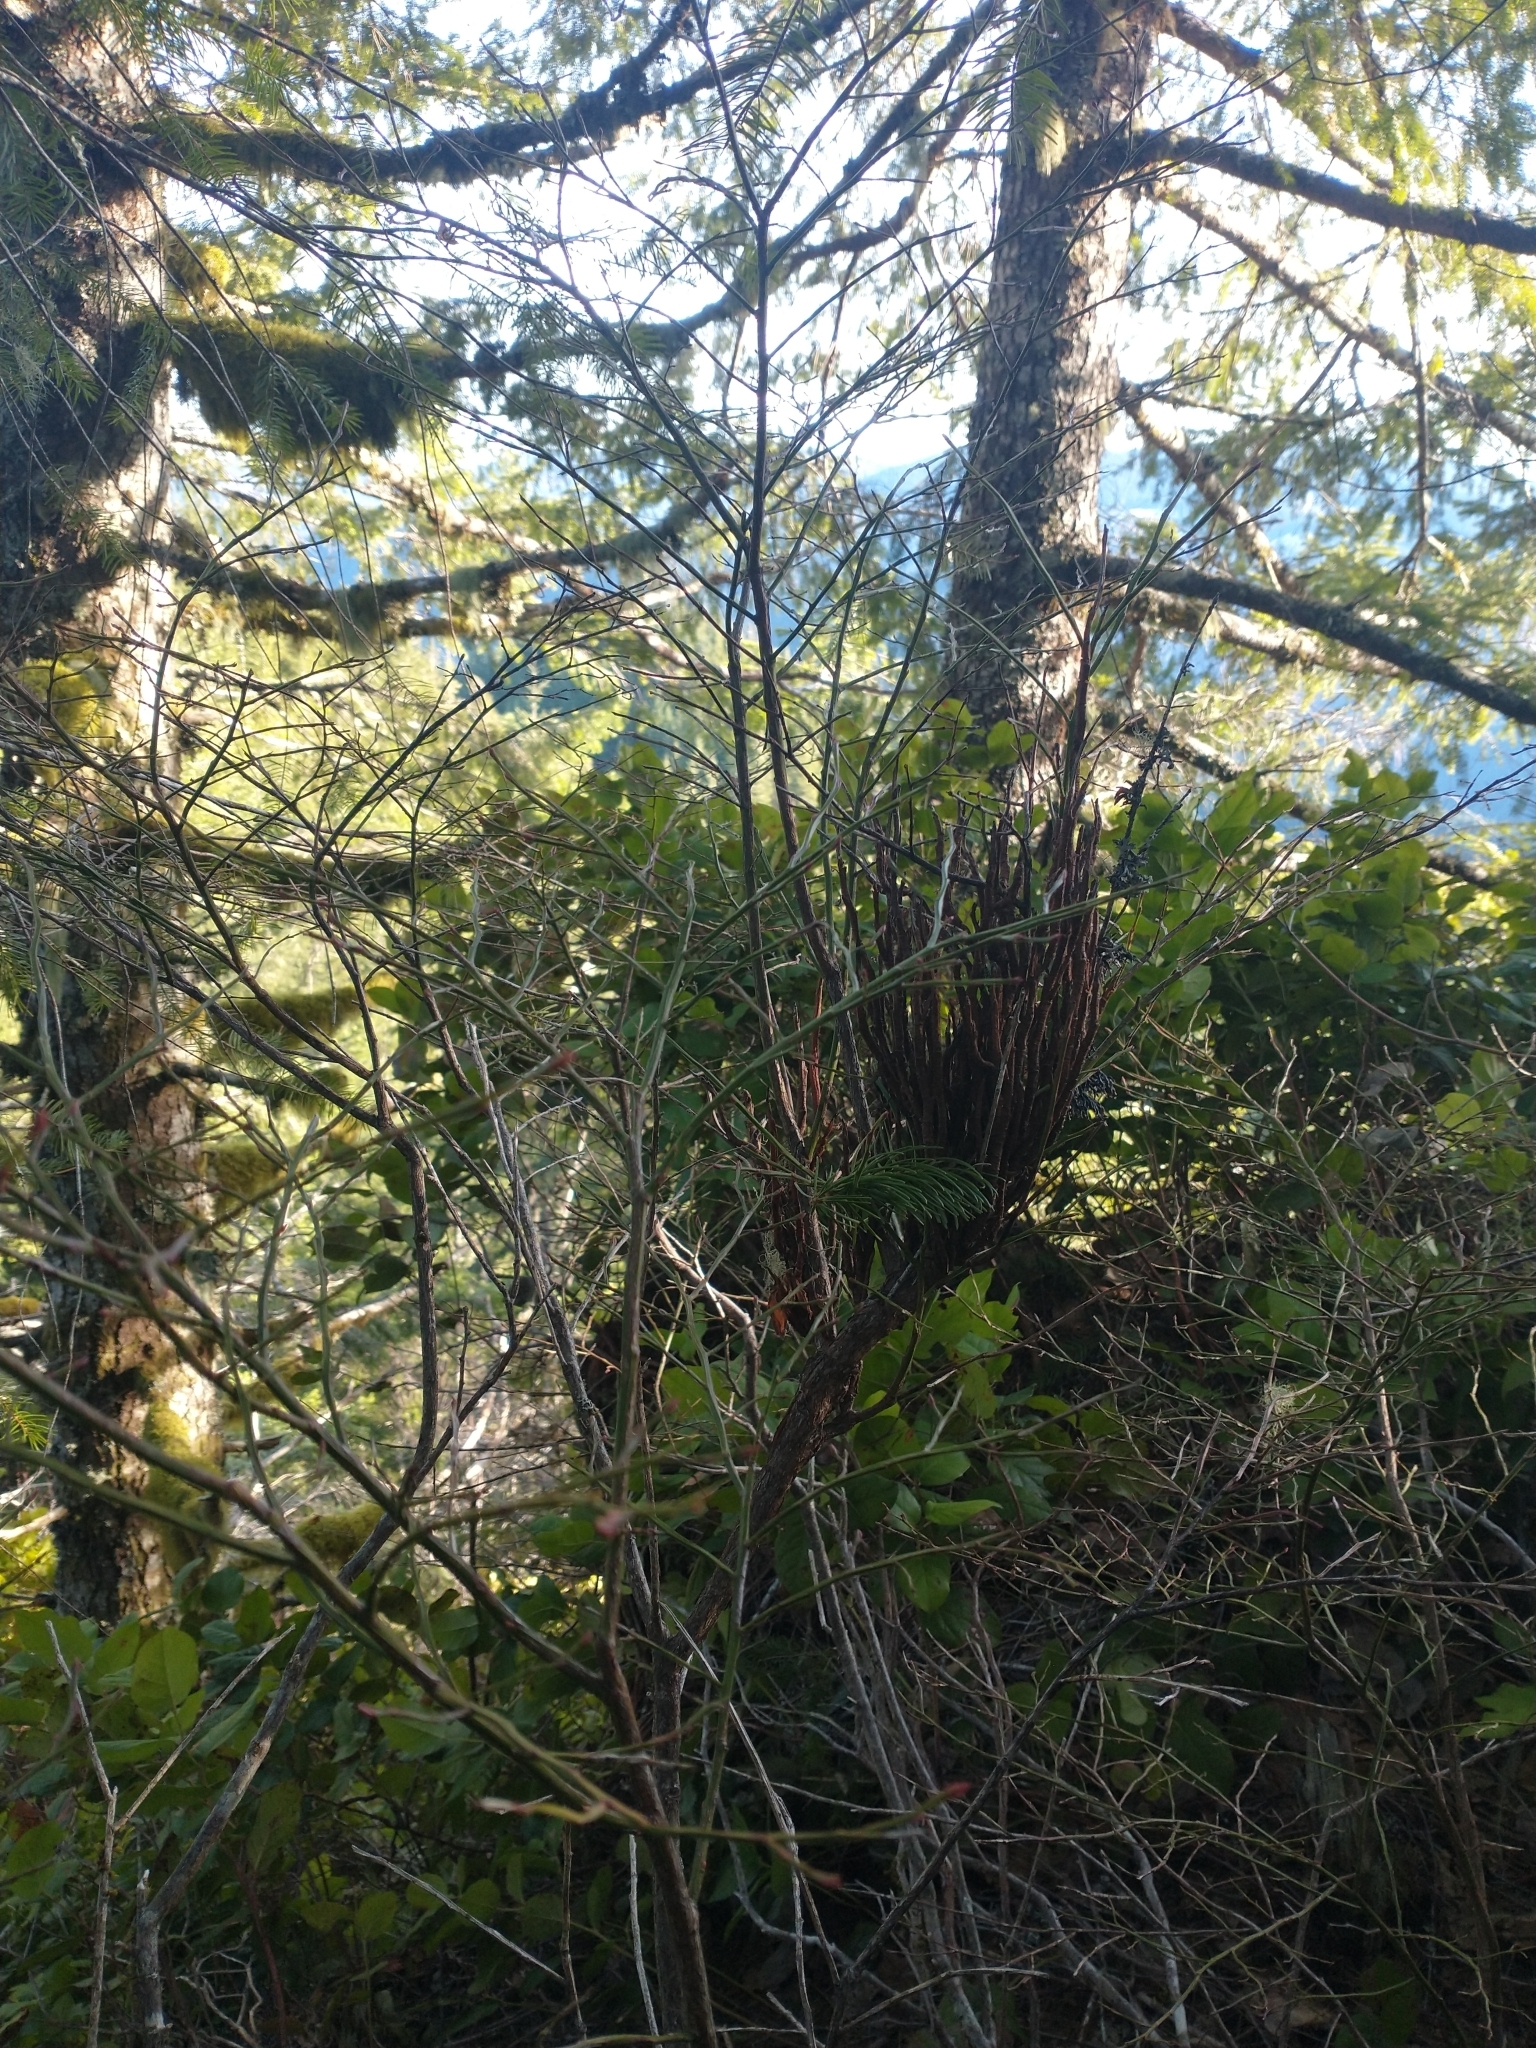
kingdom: Plantae
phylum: Tracheophyta
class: Magnoliopsida
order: Ericales
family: Ericaceae
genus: Vaccinium
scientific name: Vaccinium parvifolium
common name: Red-huckleberry
